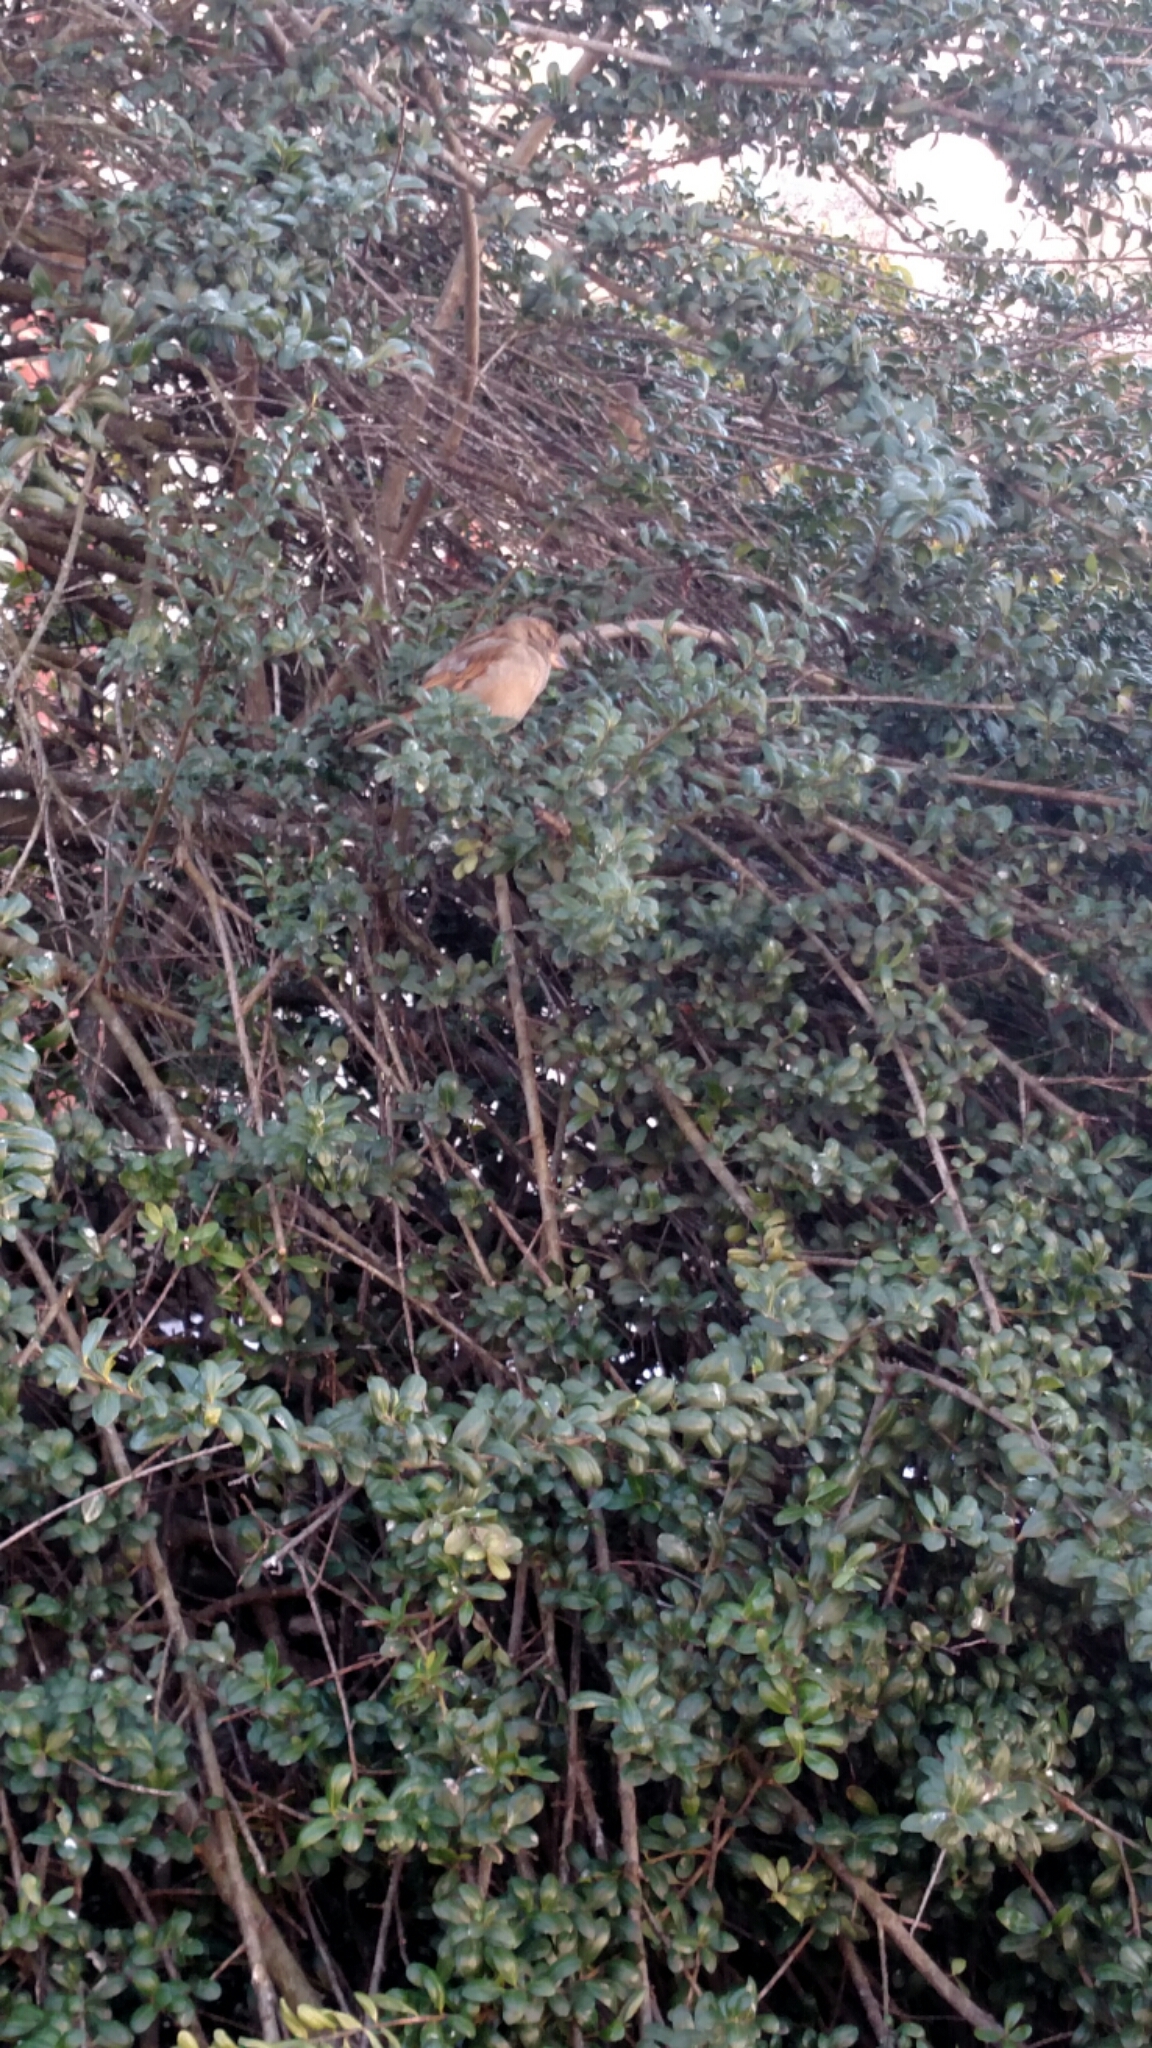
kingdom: Animalia
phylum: Chordata
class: Aves
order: Passeriformes
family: Passeridae
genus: Passer
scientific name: Passer domesticus
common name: House sparrow
